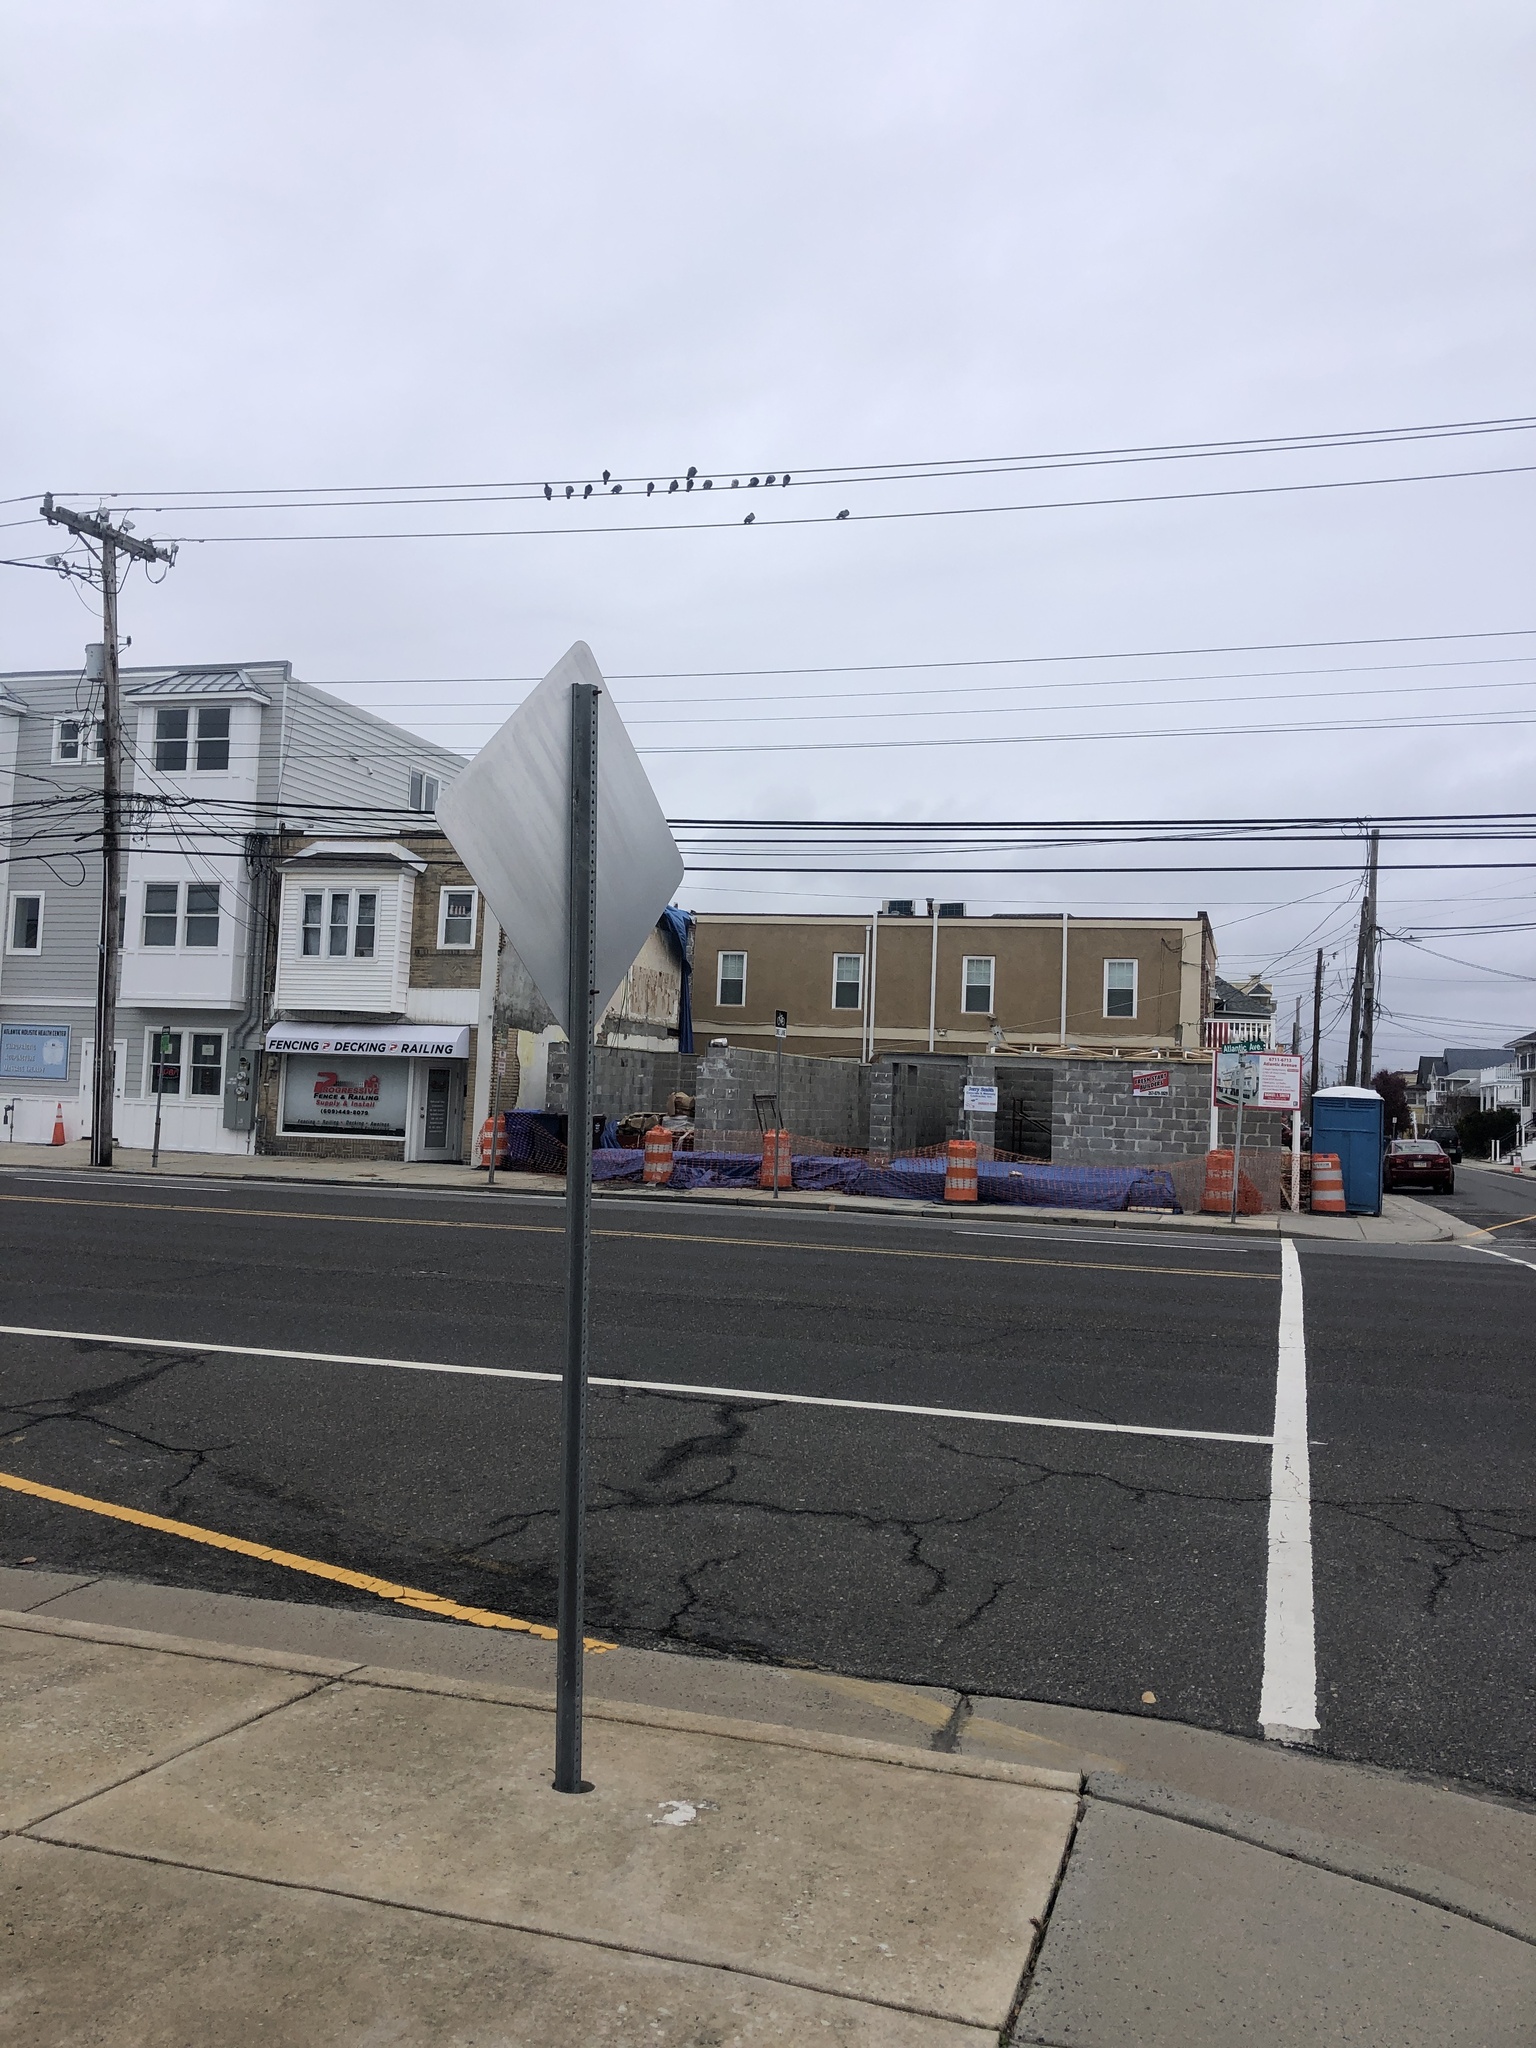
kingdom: Animalia
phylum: Chordata
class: Aves
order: Columbiformes
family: Columbidae
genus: Columba
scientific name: Columba livia
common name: Rock pigeon
